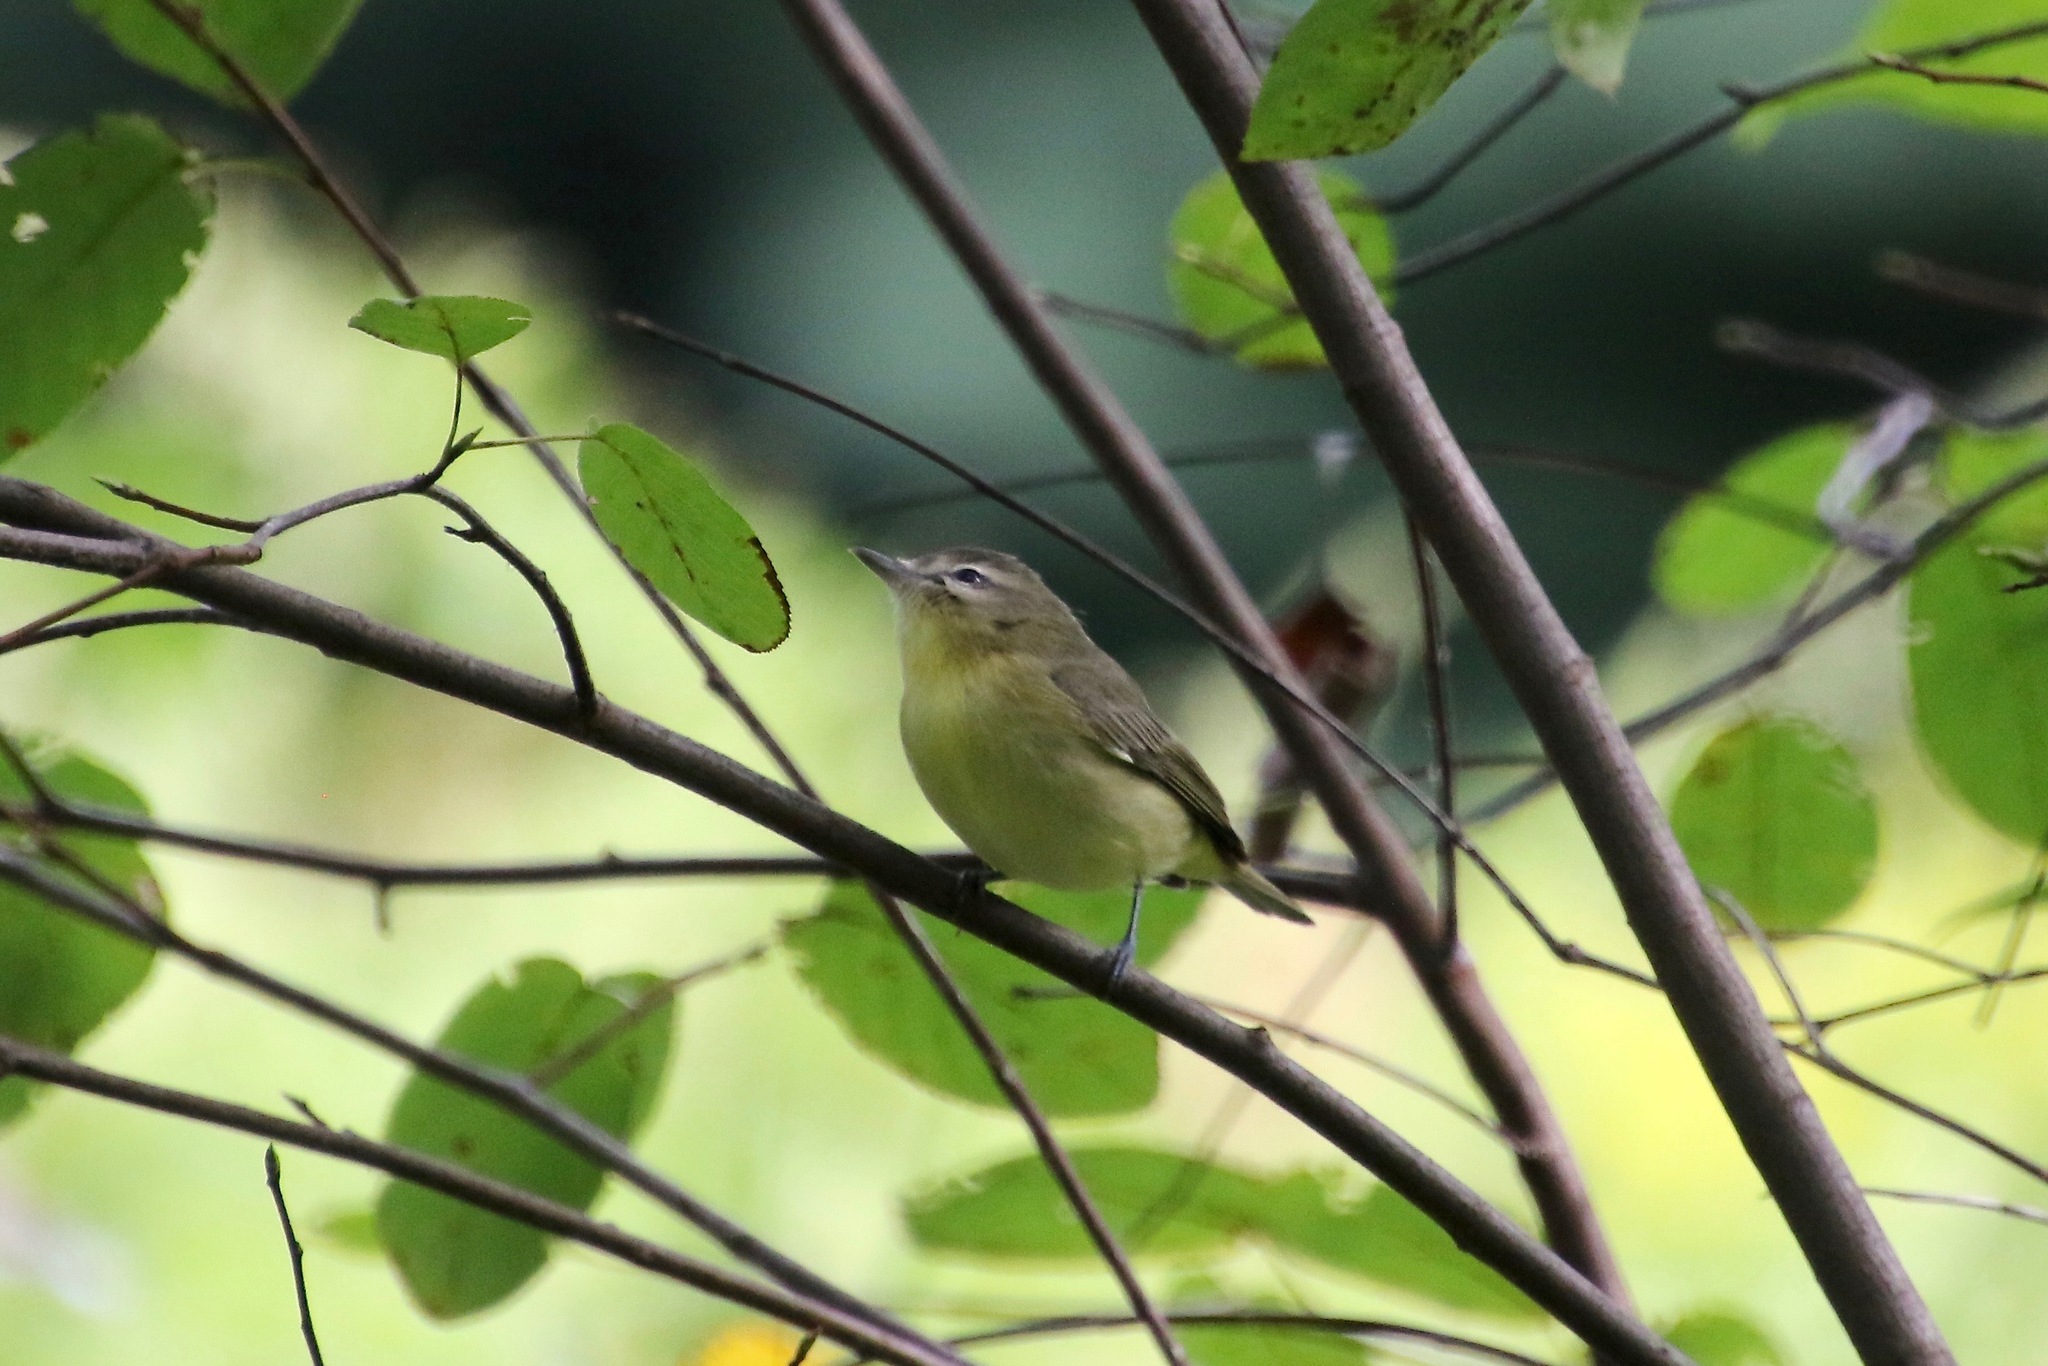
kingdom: Animalia
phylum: Chordata
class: Aves
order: Passeriformes
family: Vireonidae
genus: Vireo
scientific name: Vireo philadelphicus
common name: Philadelphia vireo
